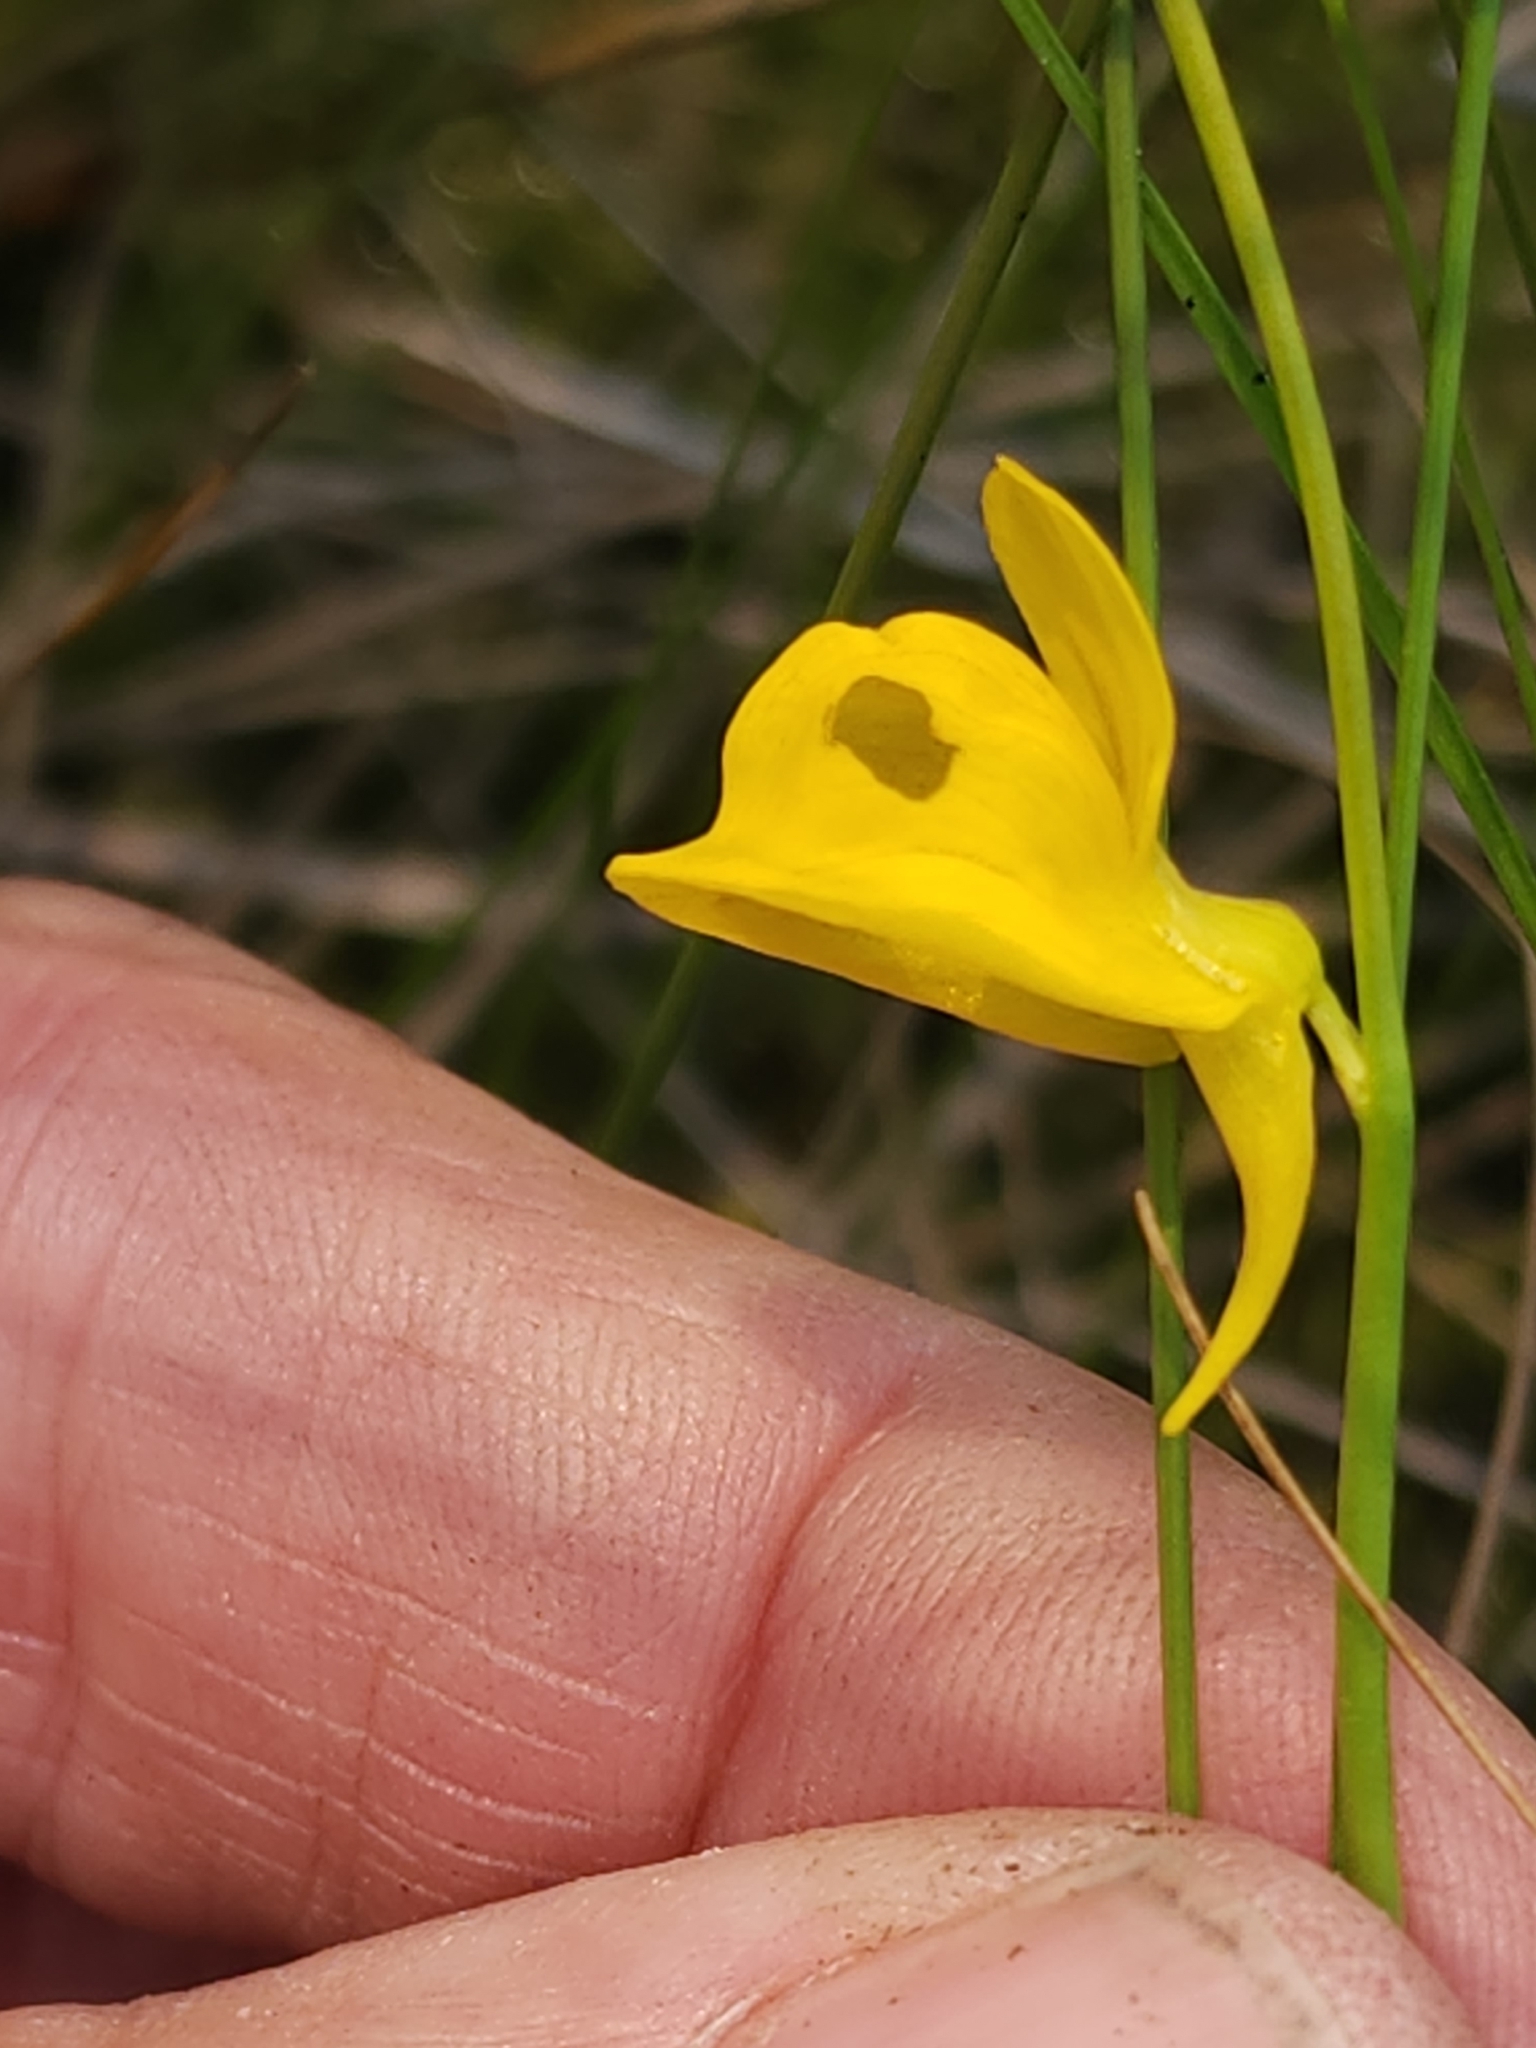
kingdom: Plantae
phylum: Tracheophyta
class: Magnoliopsida
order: Lamiales
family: Lentibulariaceae
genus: Utricularia
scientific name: Utricularia cornuta
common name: Horned bladderwort
